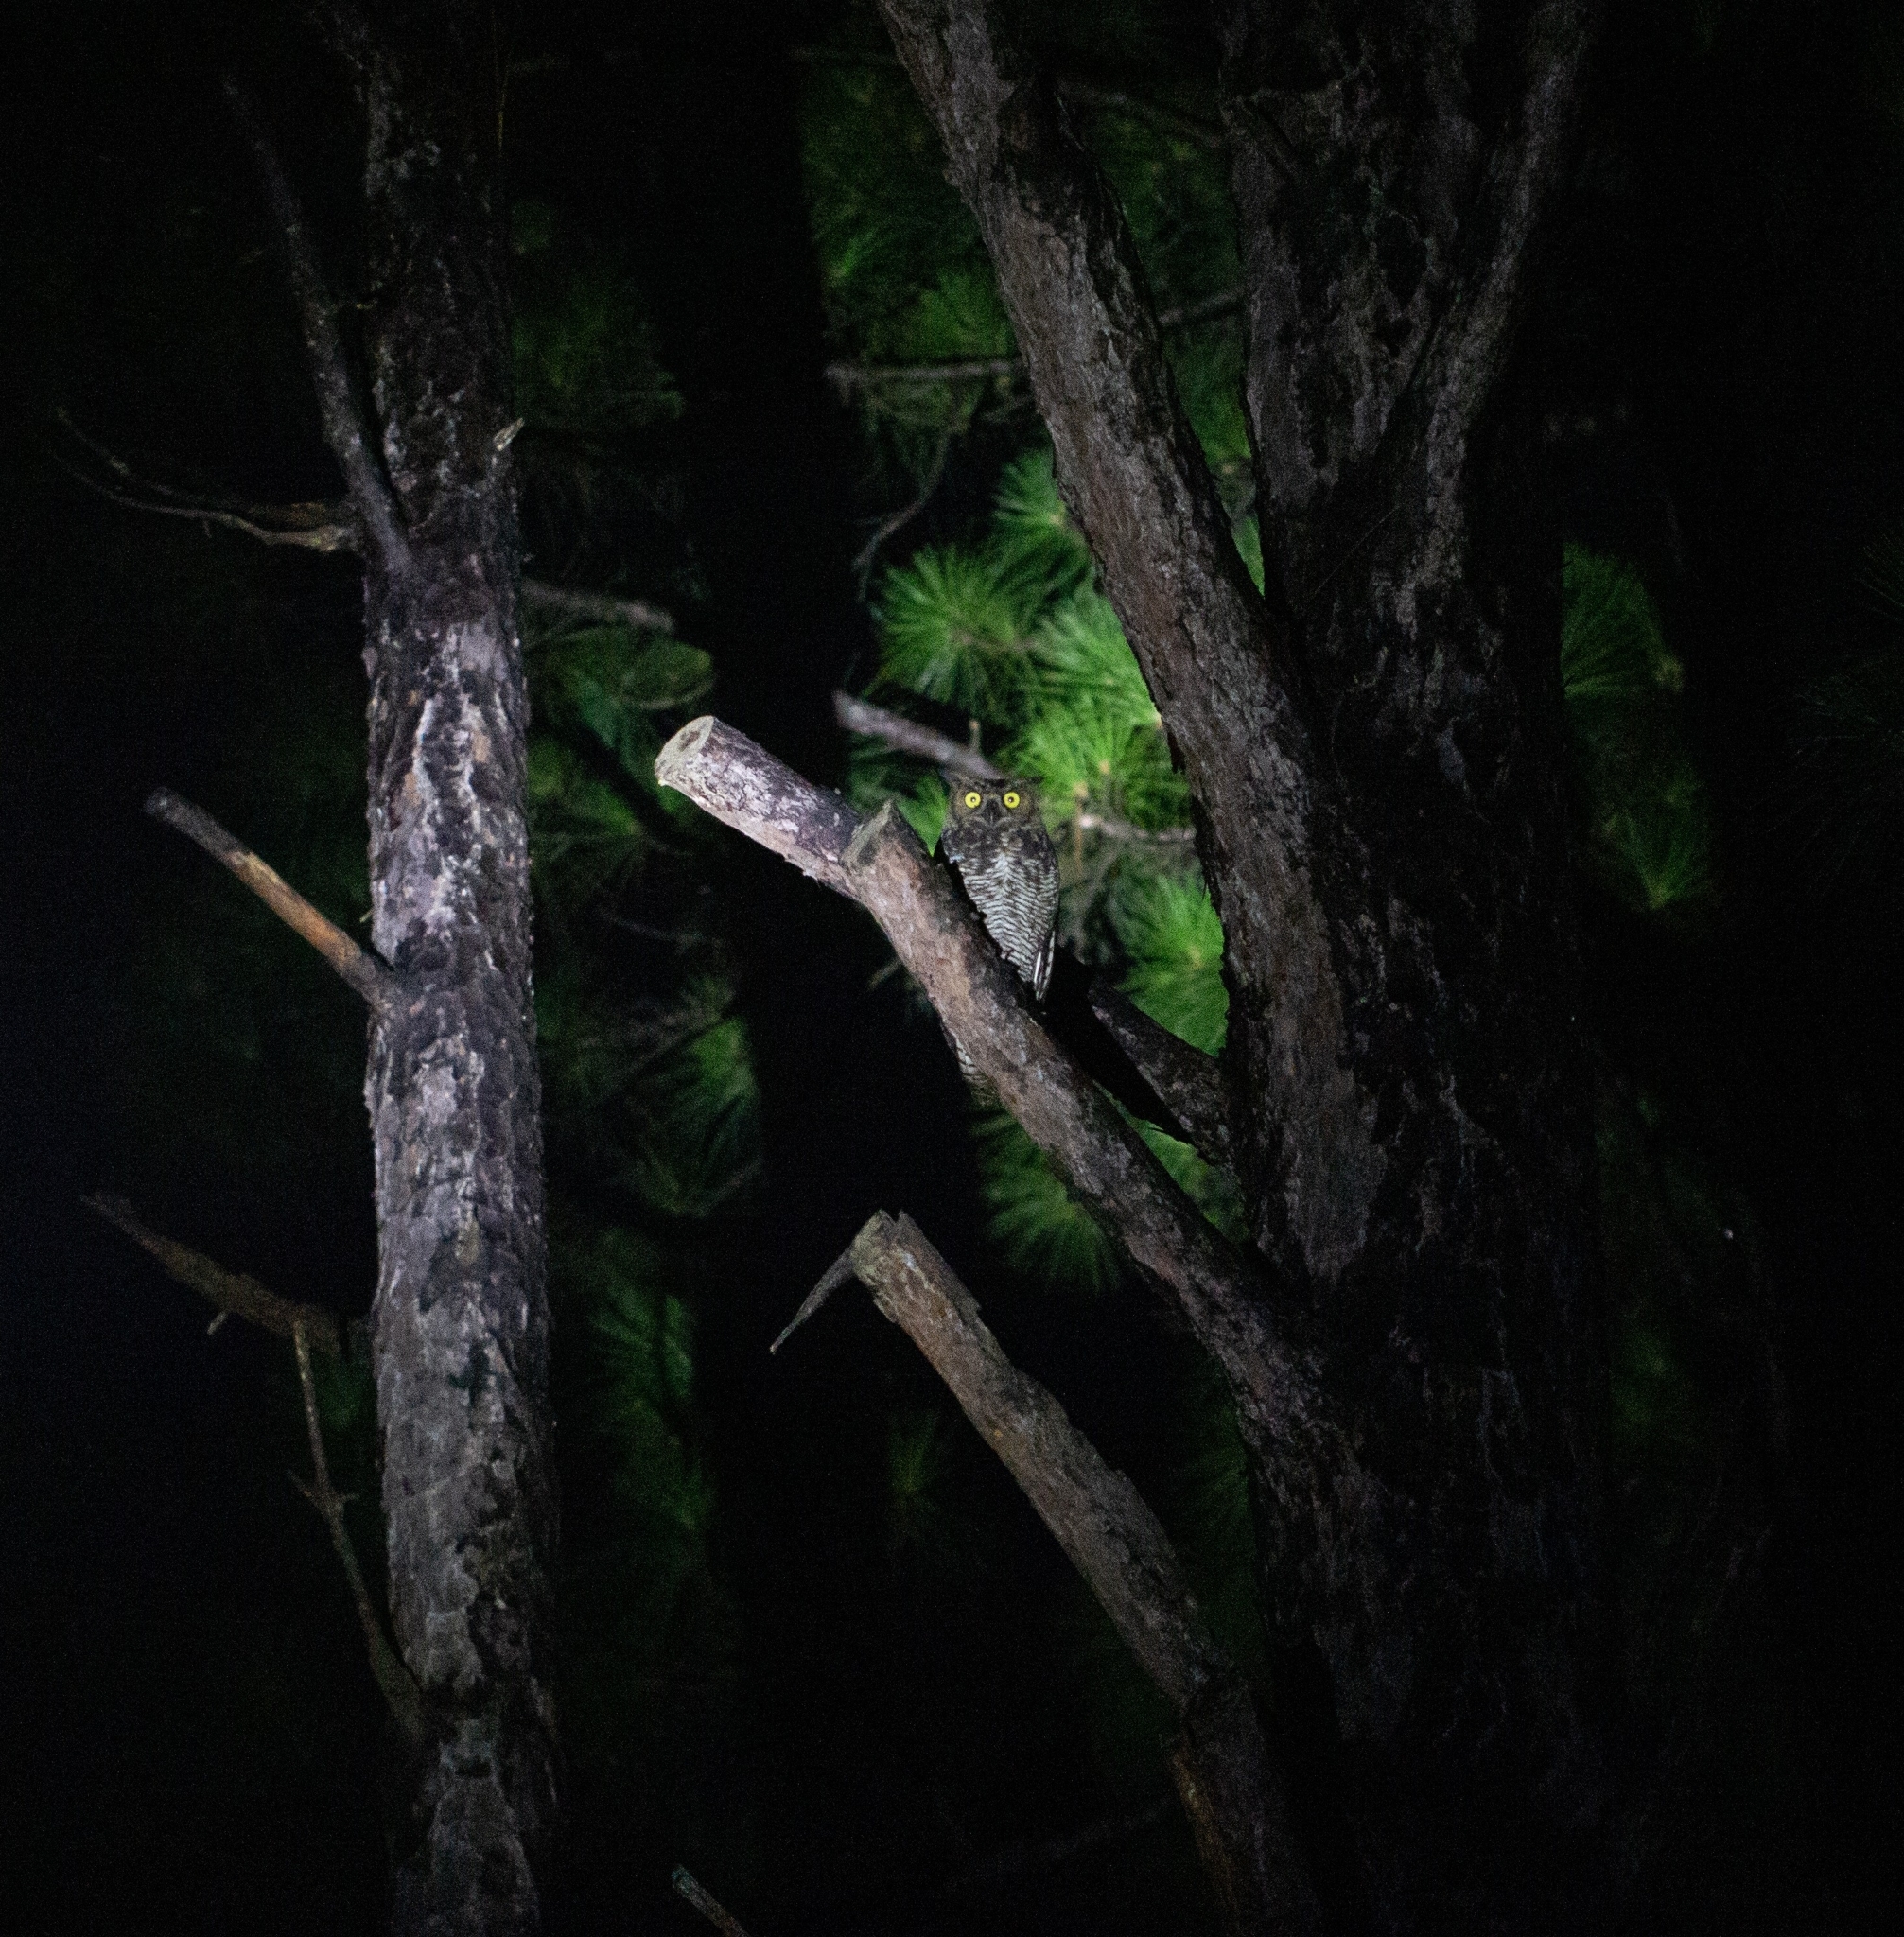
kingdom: Animalia
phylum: Chordata
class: Aves
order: Strigiformes
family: Strigidae
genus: Bubo
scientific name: Bubo virginianus
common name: Great horned owl
